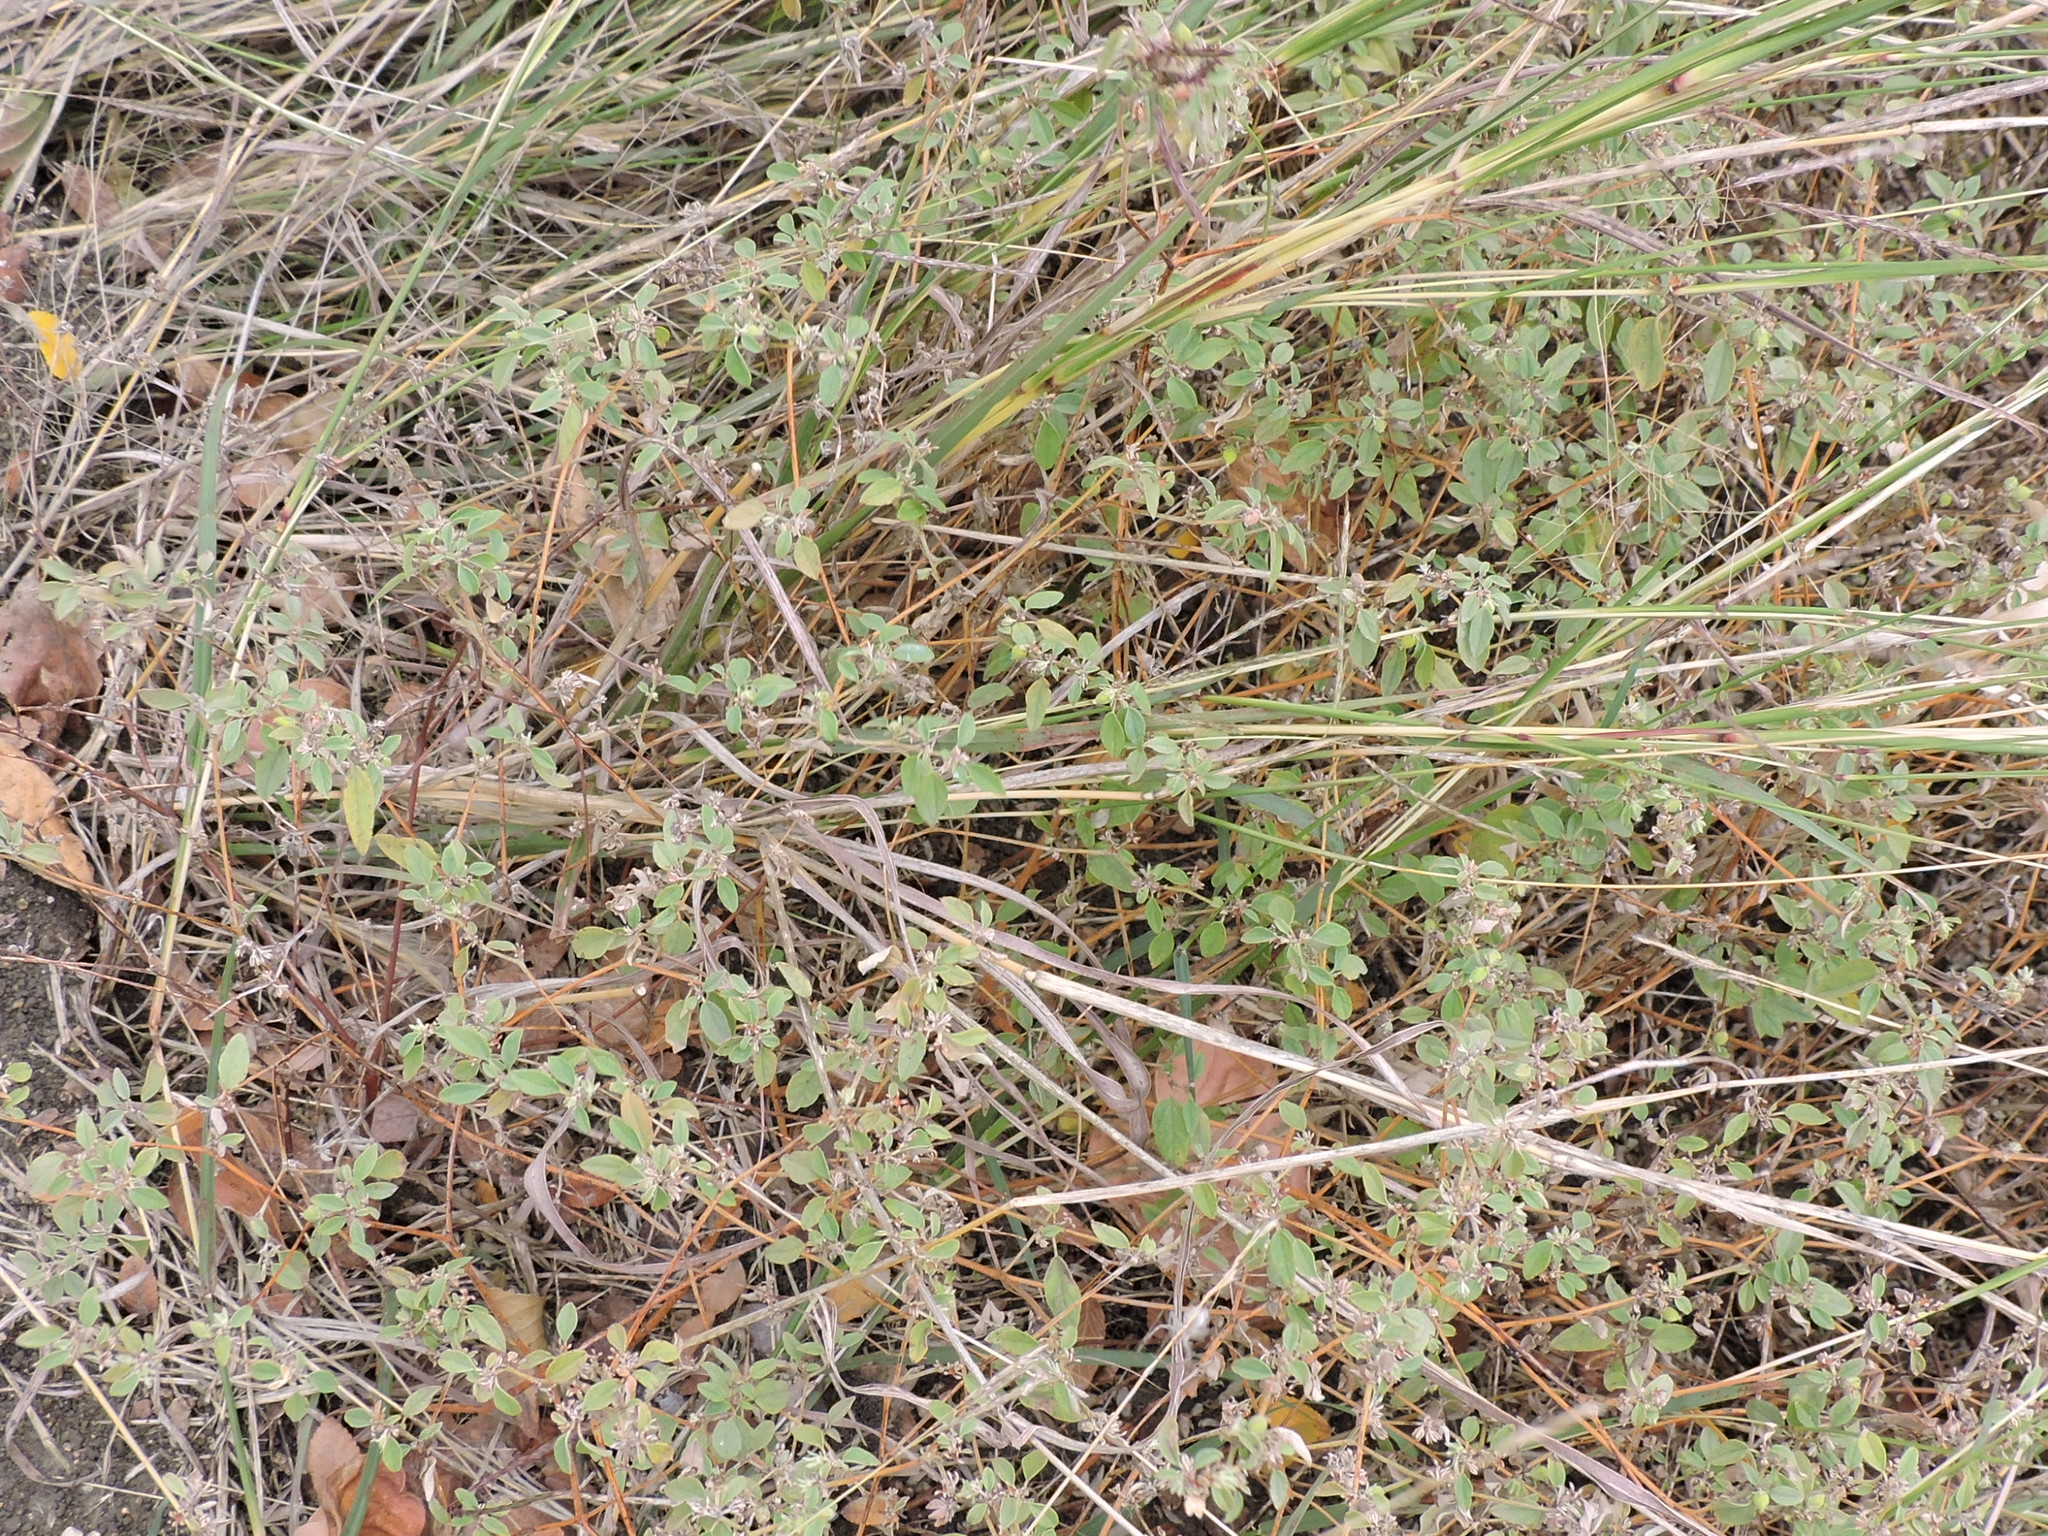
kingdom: Plantae
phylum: Tracheophyta
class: Magnoliopsida
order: Malpighiales
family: Euphorbiaceae
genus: Croton
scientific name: Croton monanthogynus
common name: One-seed croton
